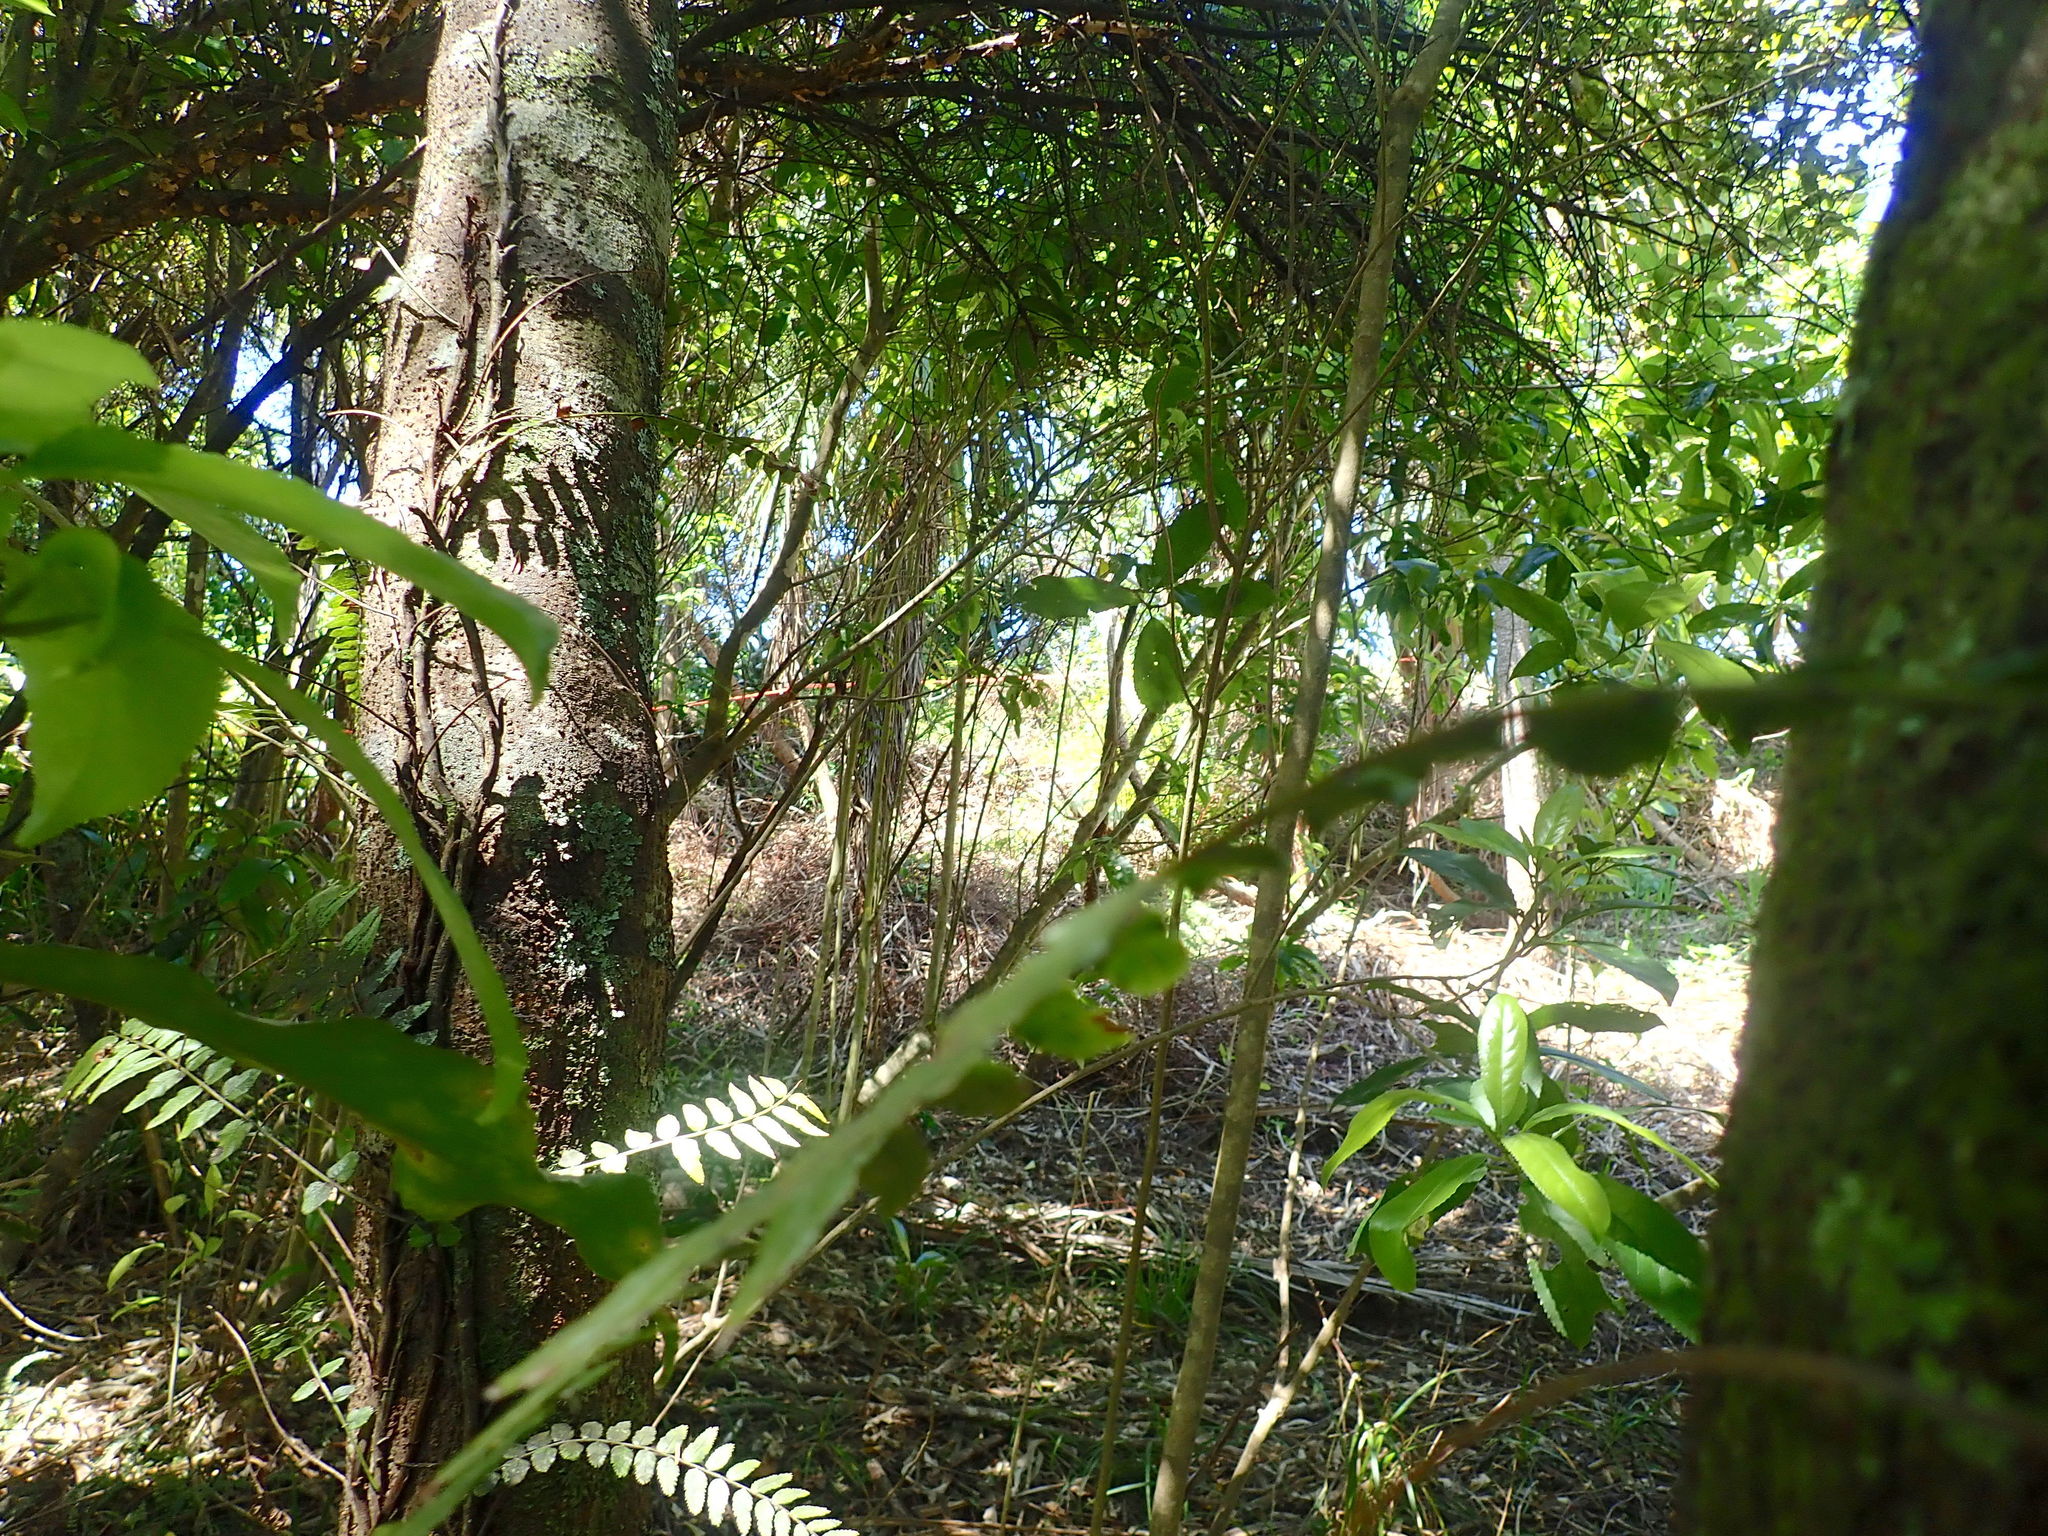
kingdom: Plantae
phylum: Tracheophyta
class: Polypodiopsida
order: Polypodiales
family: Blechnaceae
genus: Icarus
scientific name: Icarus filiformis
